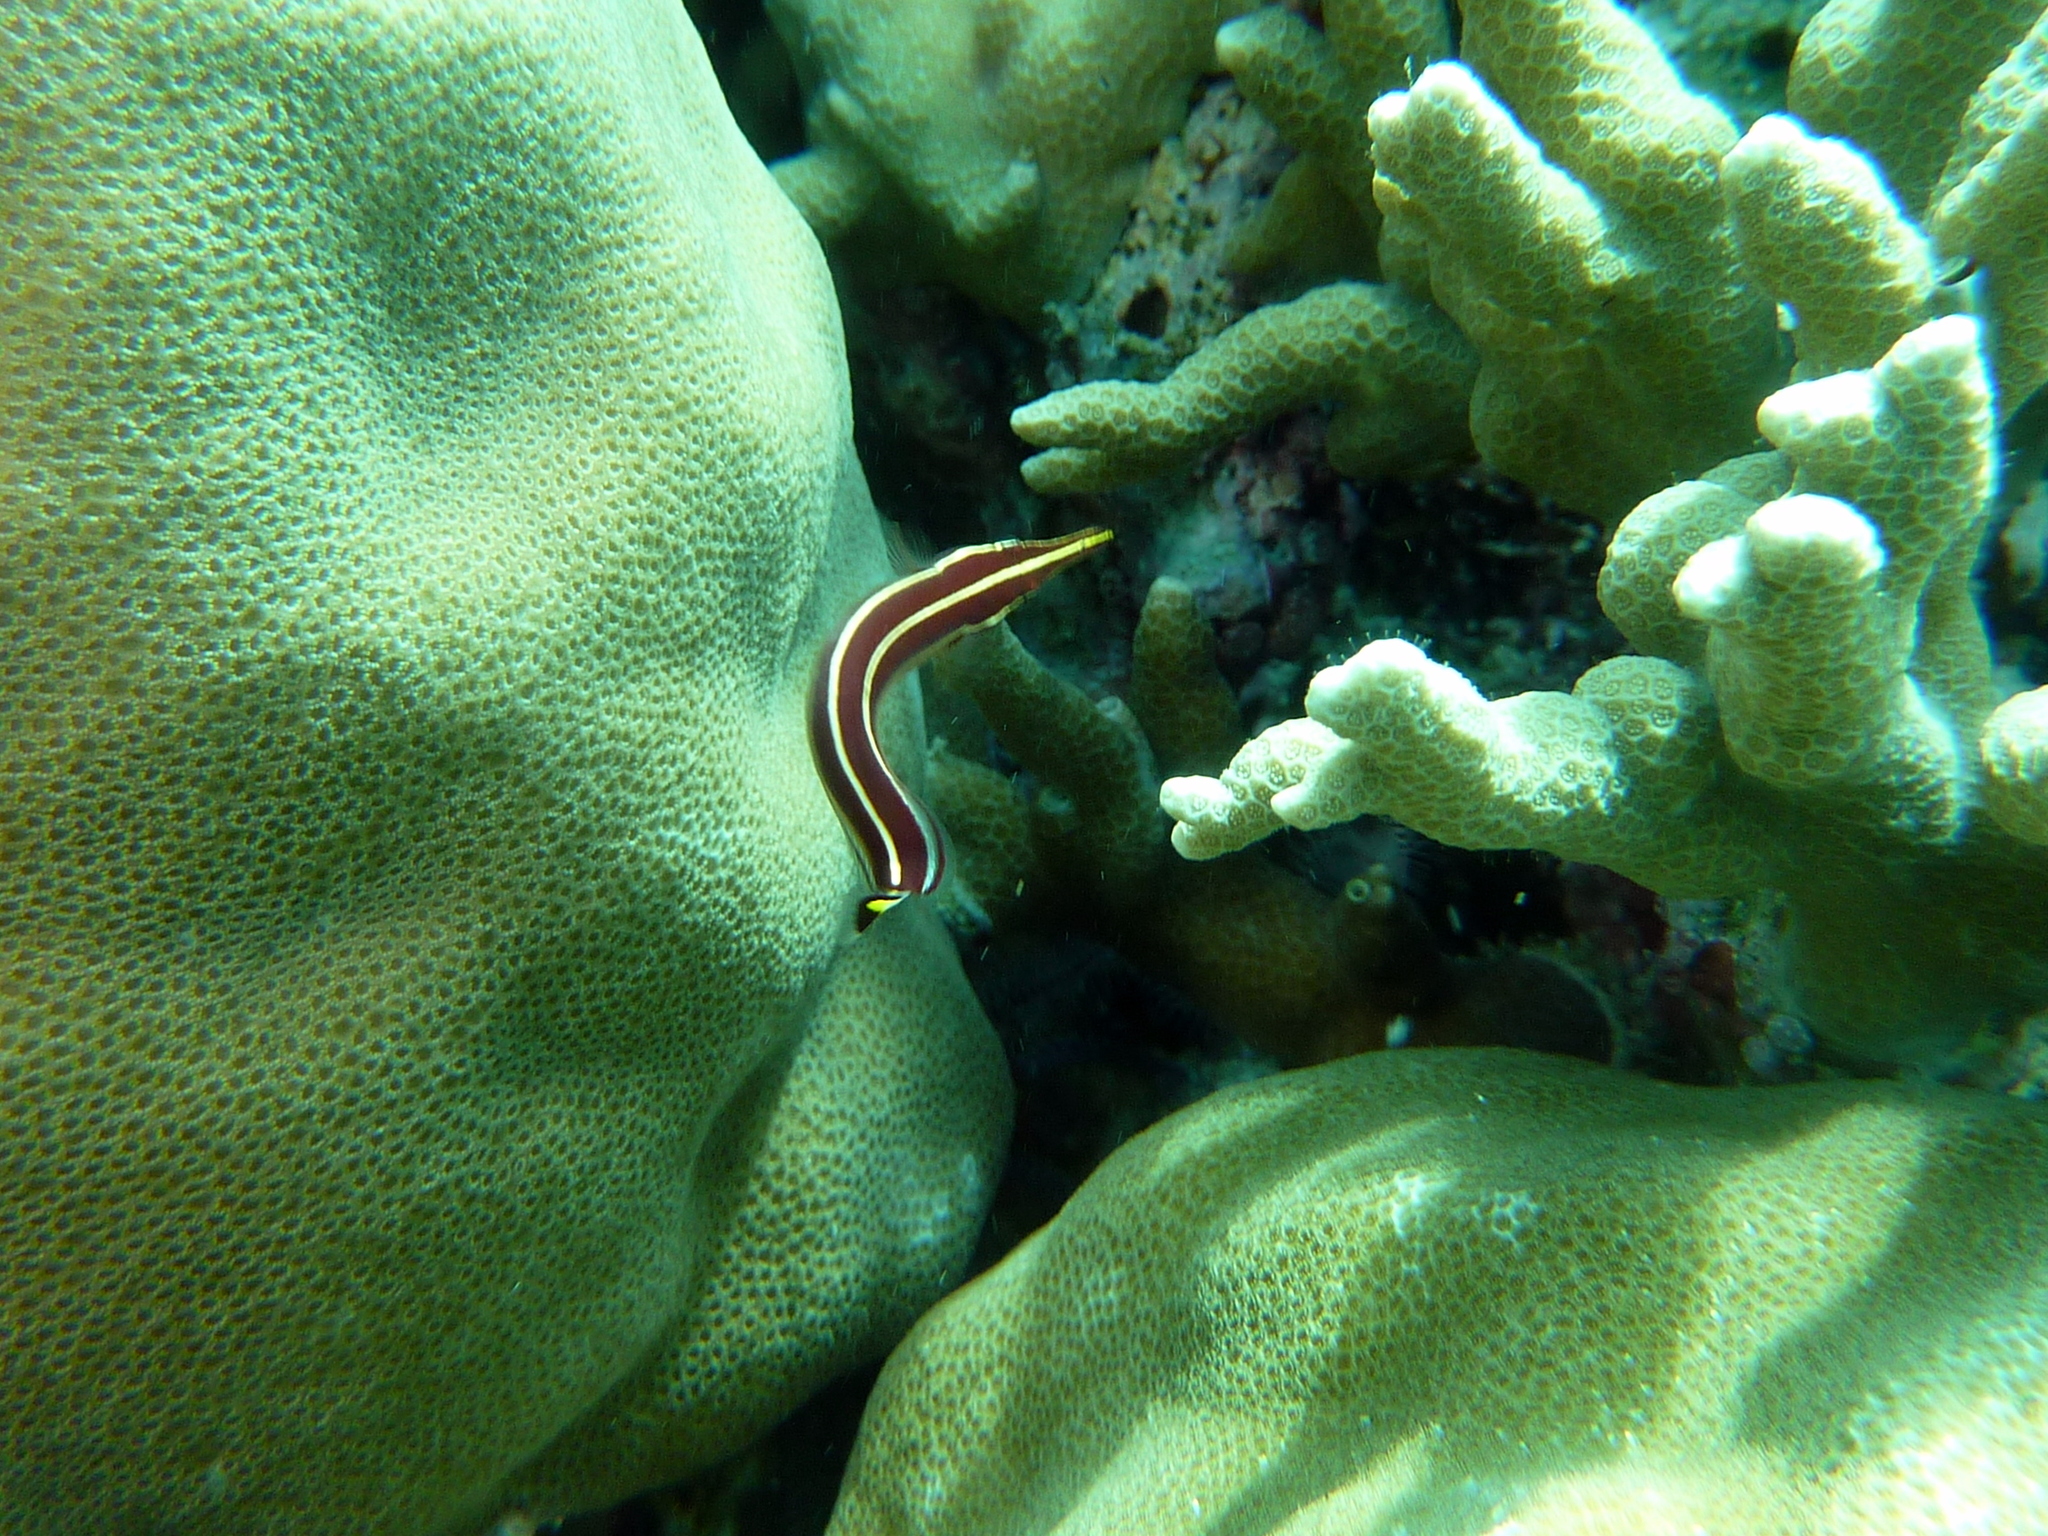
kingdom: Animalia
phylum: Chordata
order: Gobiesociformes
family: Gobiesocidae
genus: Diademichthys
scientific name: Diademichthys lineatus
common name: Urchin clingfish
